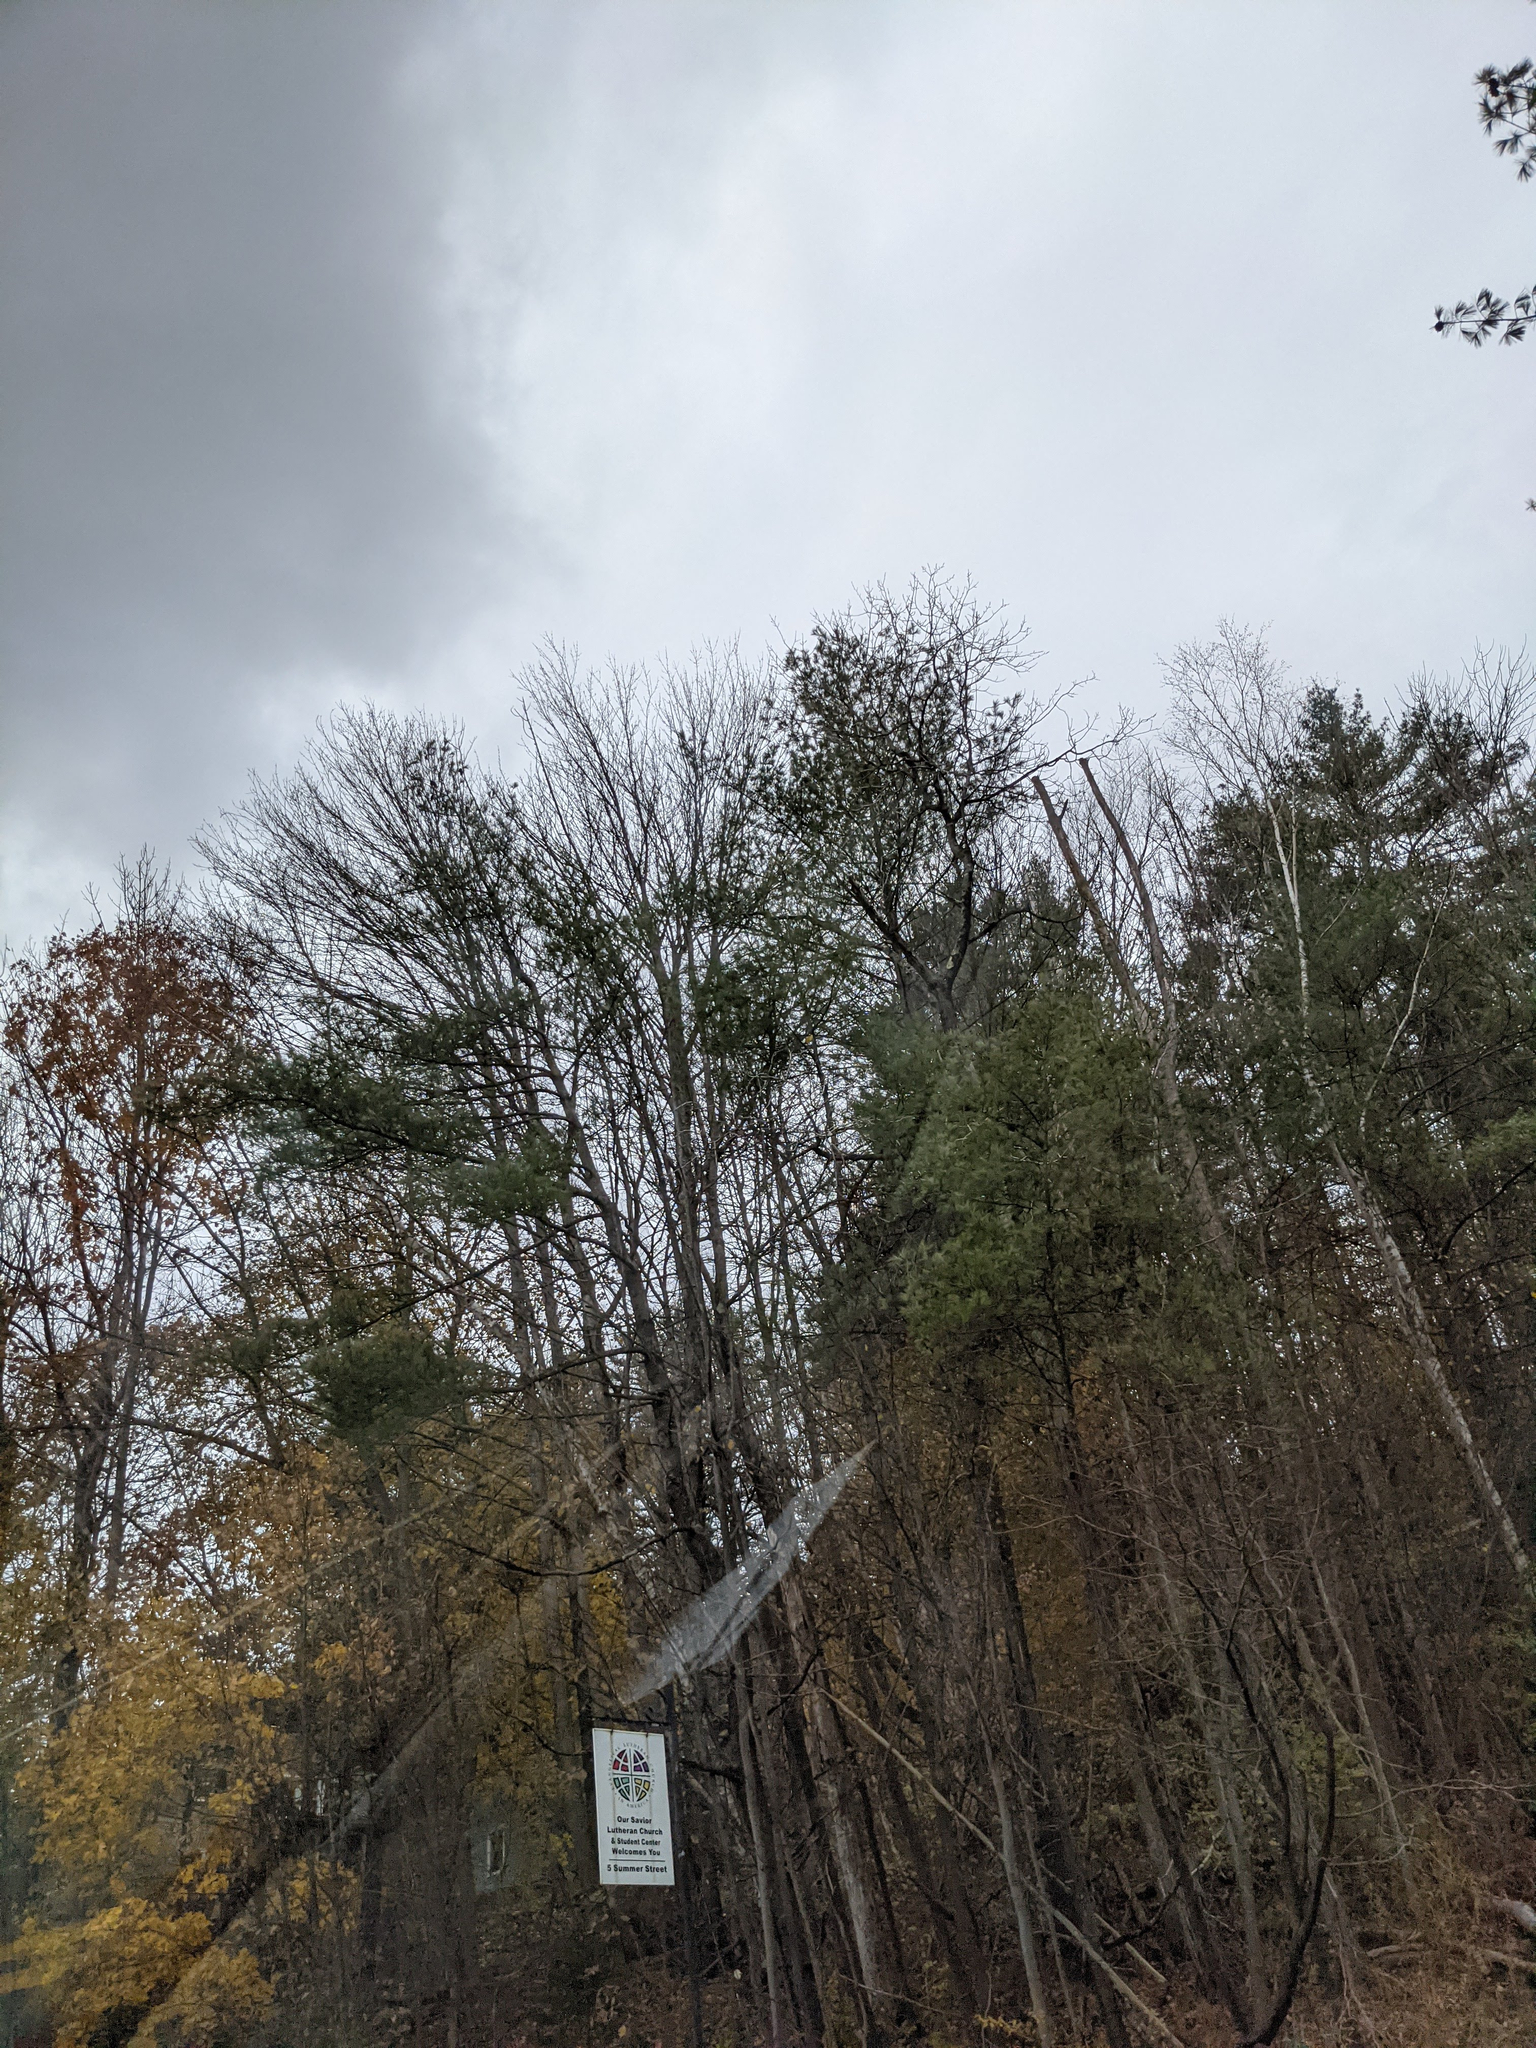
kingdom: Plantae
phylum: Tracheophyta
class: Pinopsida
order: Pinales
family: Pinaceae
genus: Pinus
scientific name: Pinus strobus
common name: Weymouth pine
